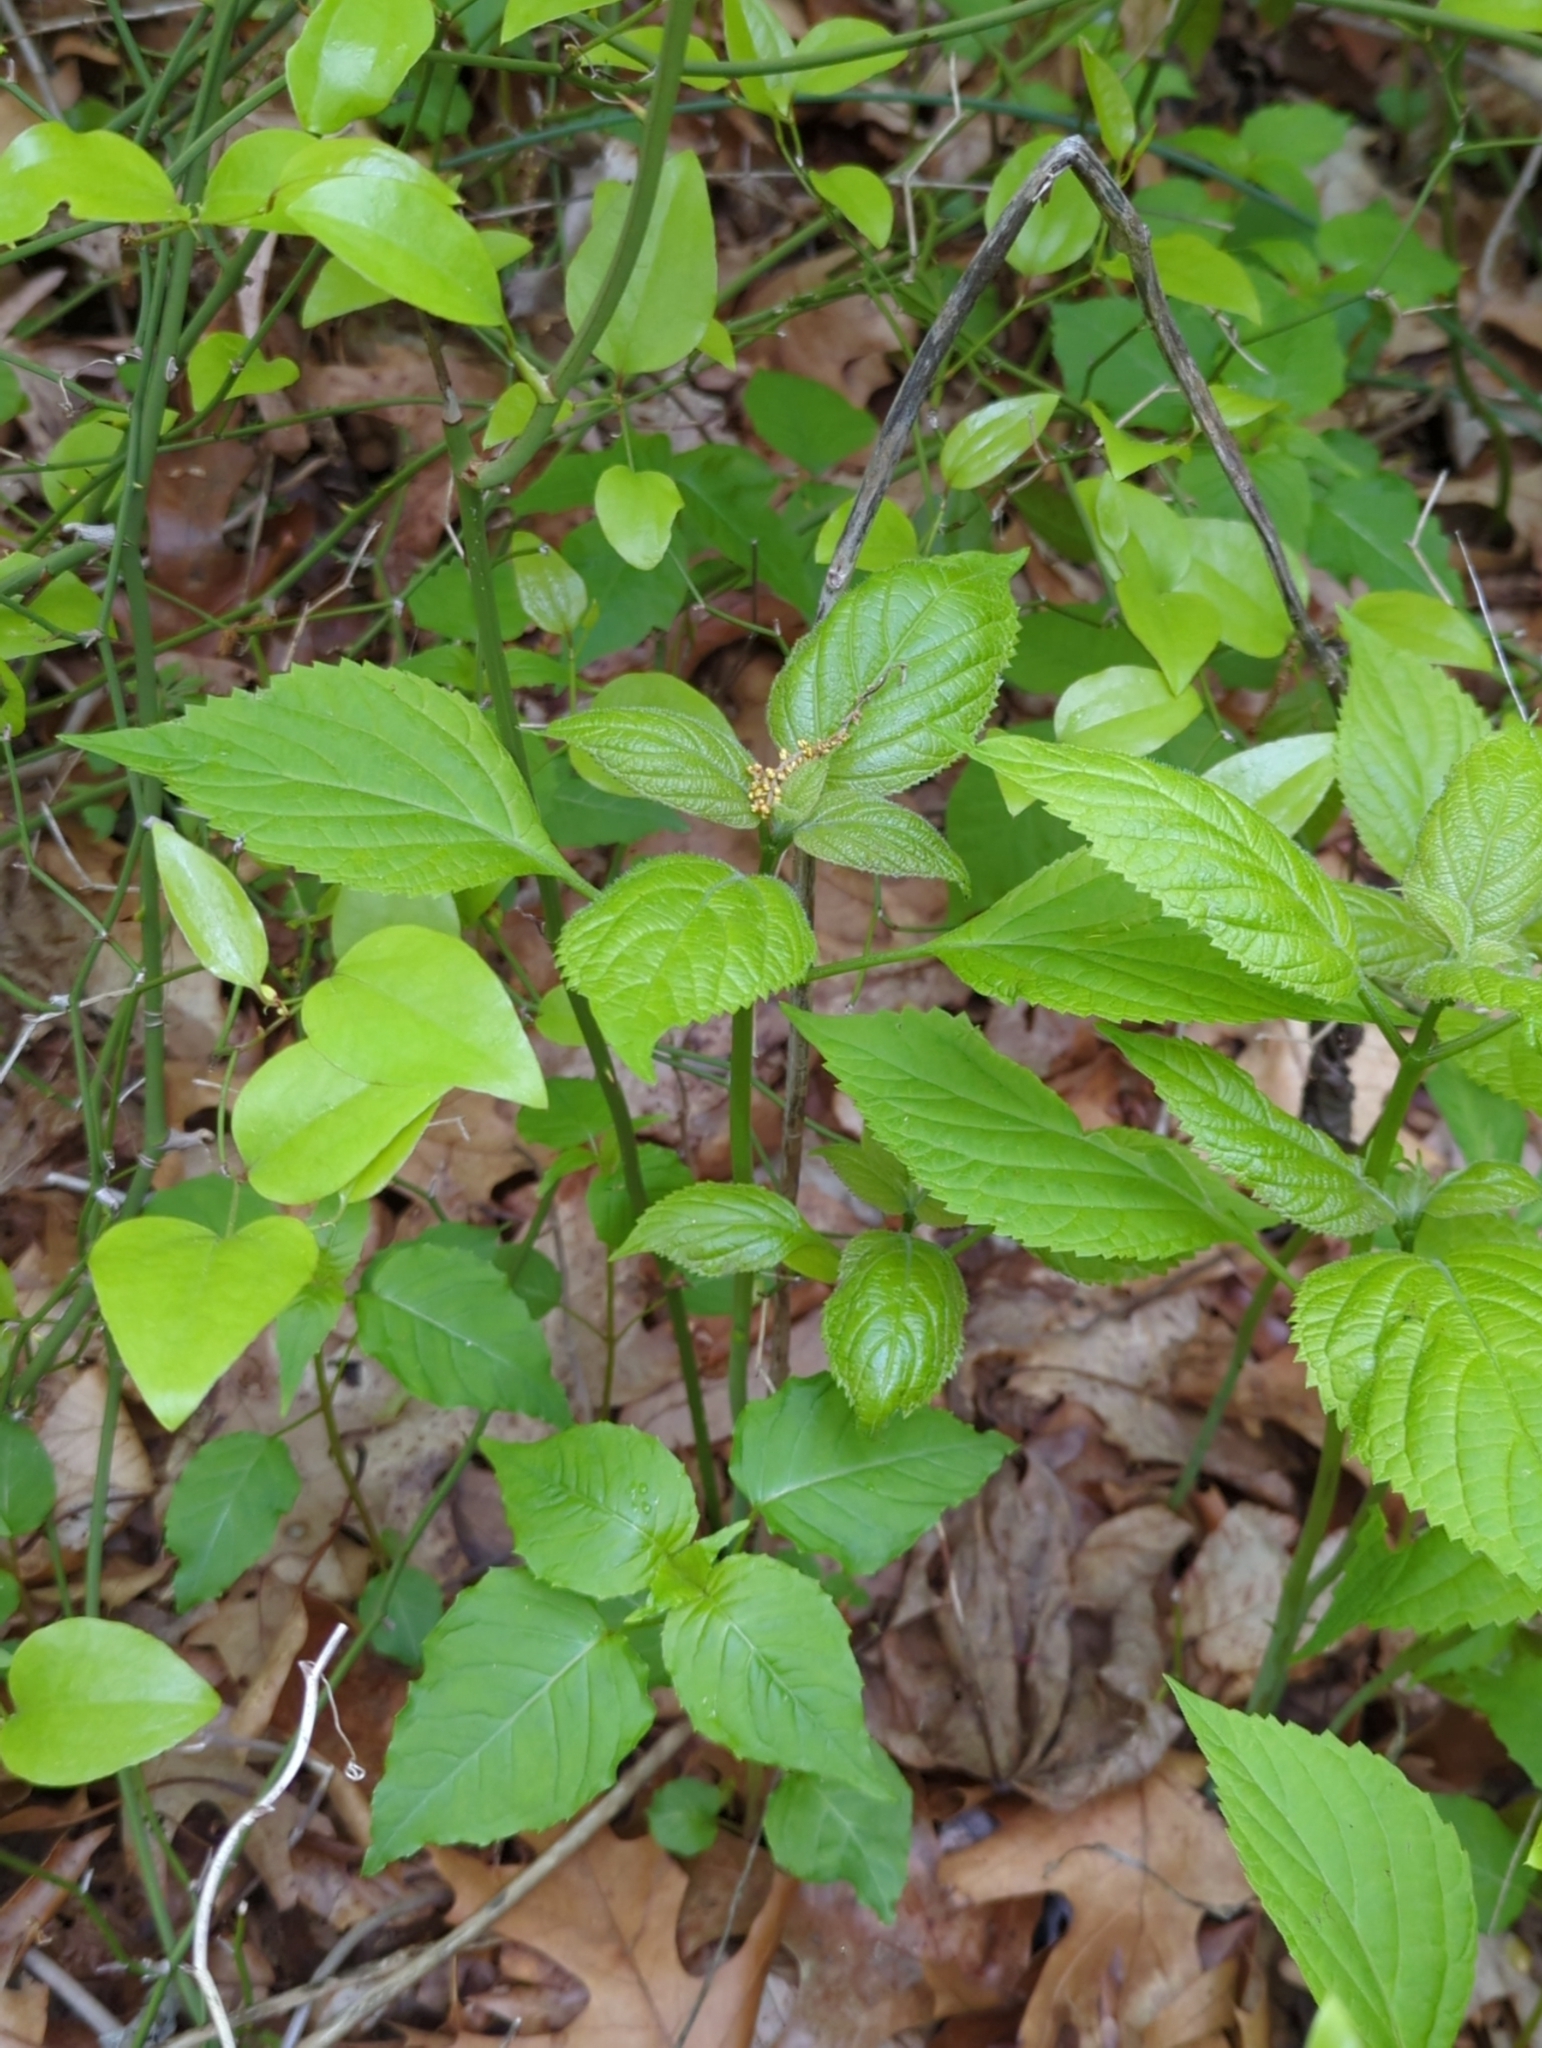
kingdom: Plantae
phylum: Tracheophyta
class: Magnoliopsida
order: Lamiales
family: Lamiaceae
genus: Collinsonia
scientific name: Collinsonia canadensis
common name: Northern horsebalm
